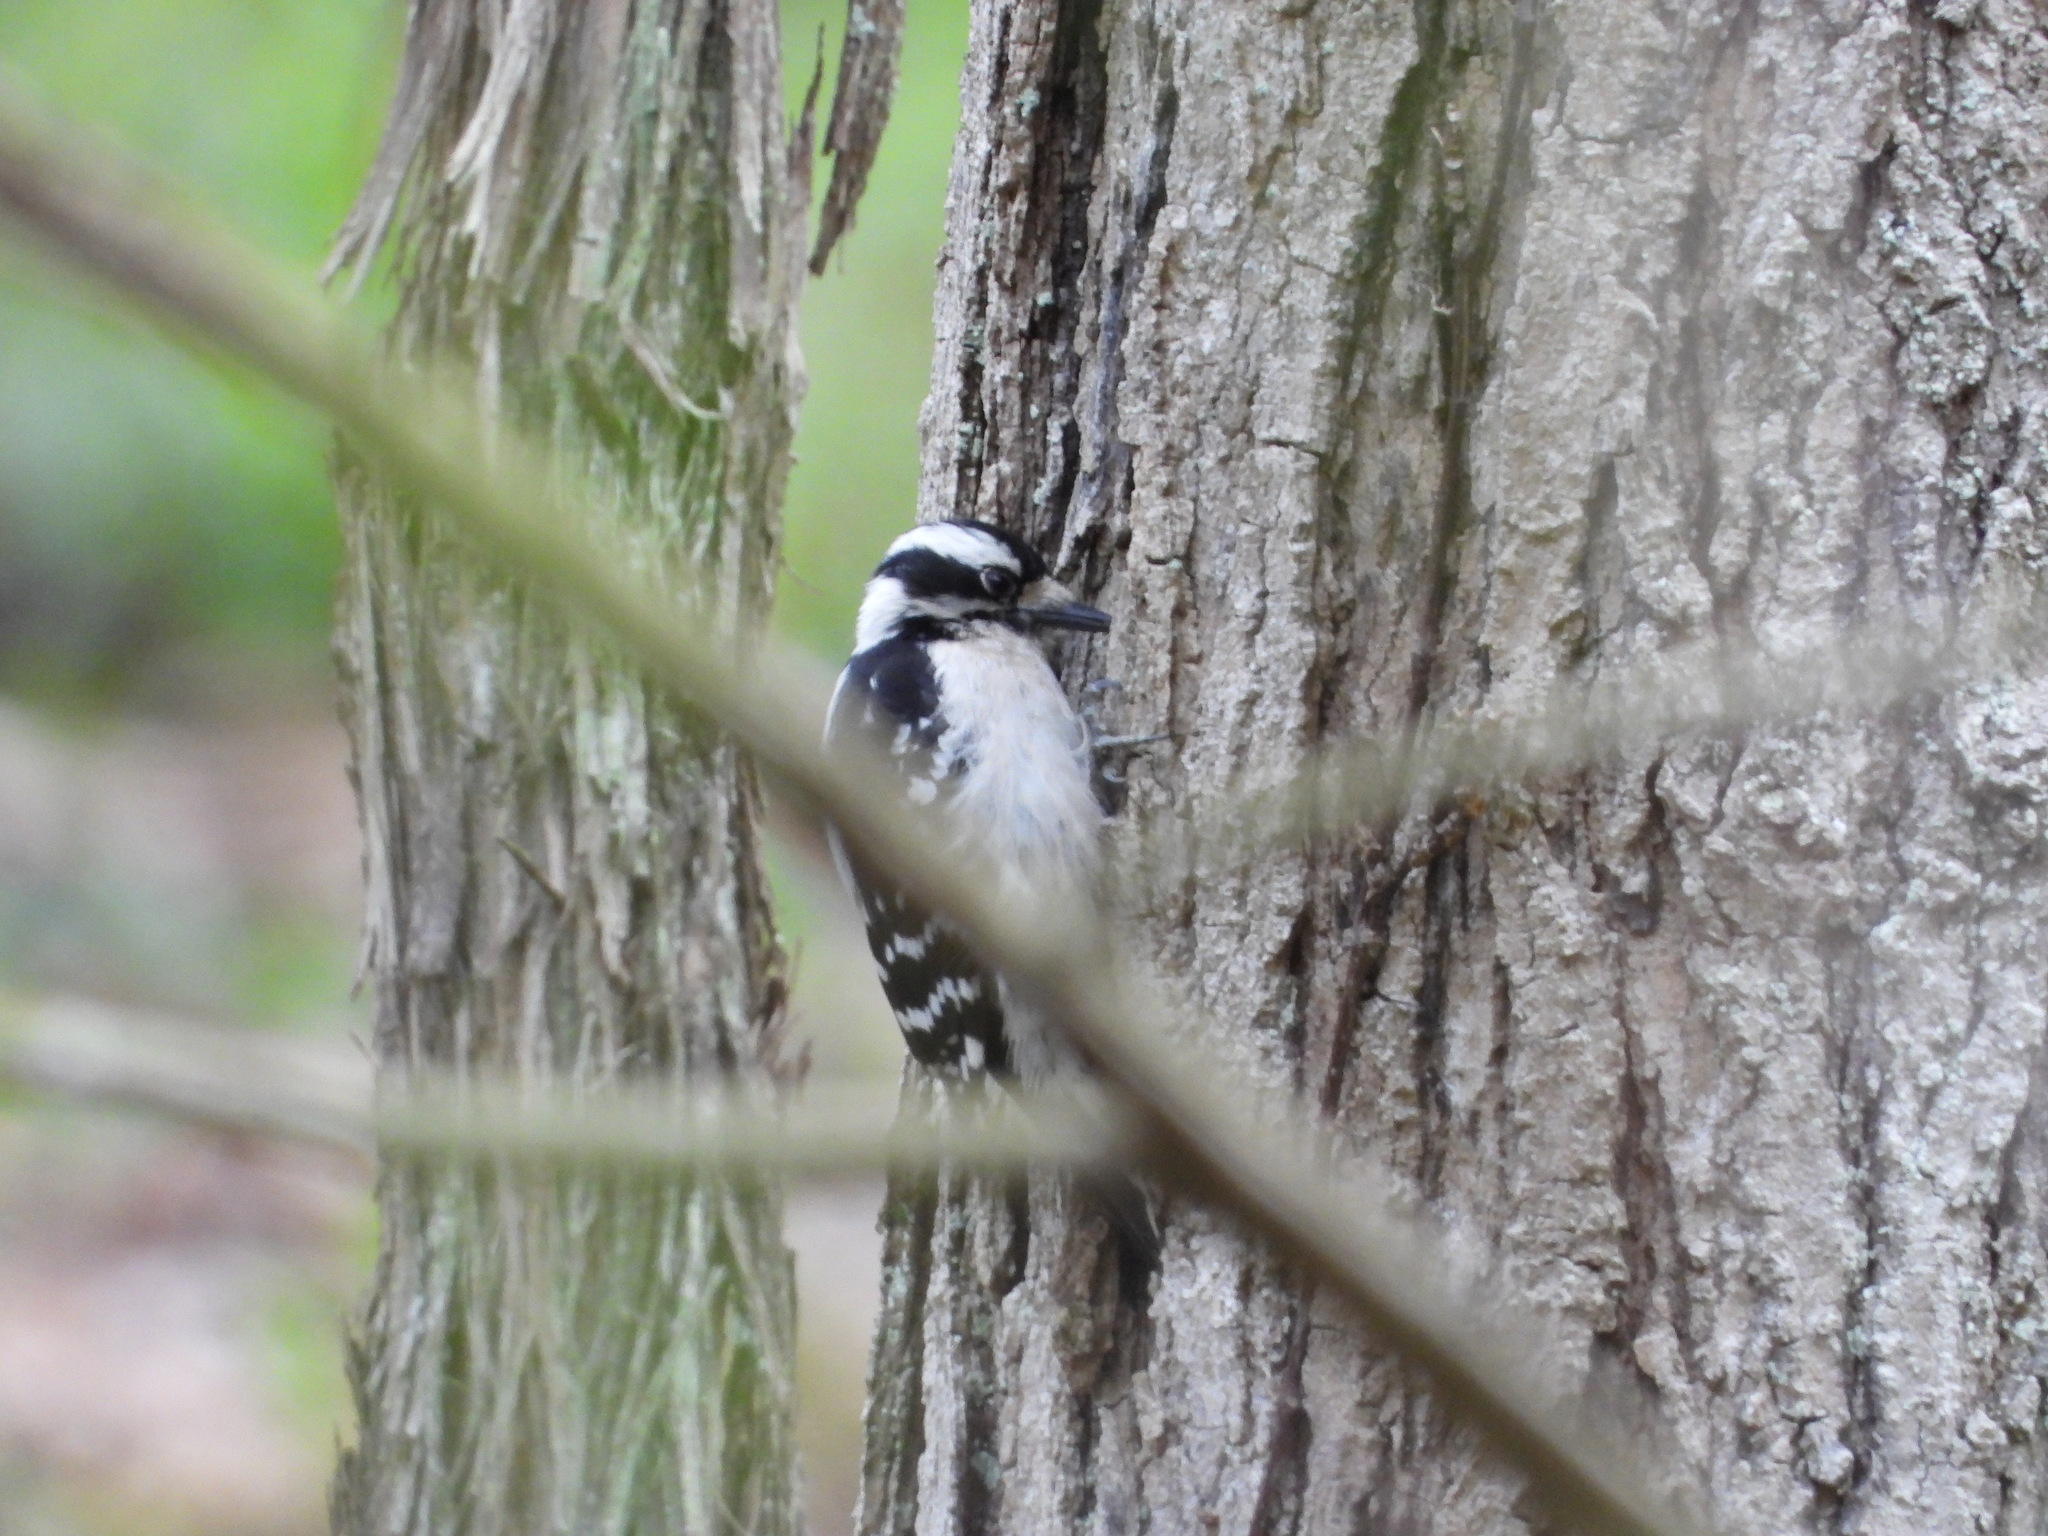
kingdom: Animalia
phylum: Chordata
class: Aves
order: Piciformes
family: Picidae
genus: Dryobates
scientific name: Dryobates pubescens
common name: Downy woodpecker
